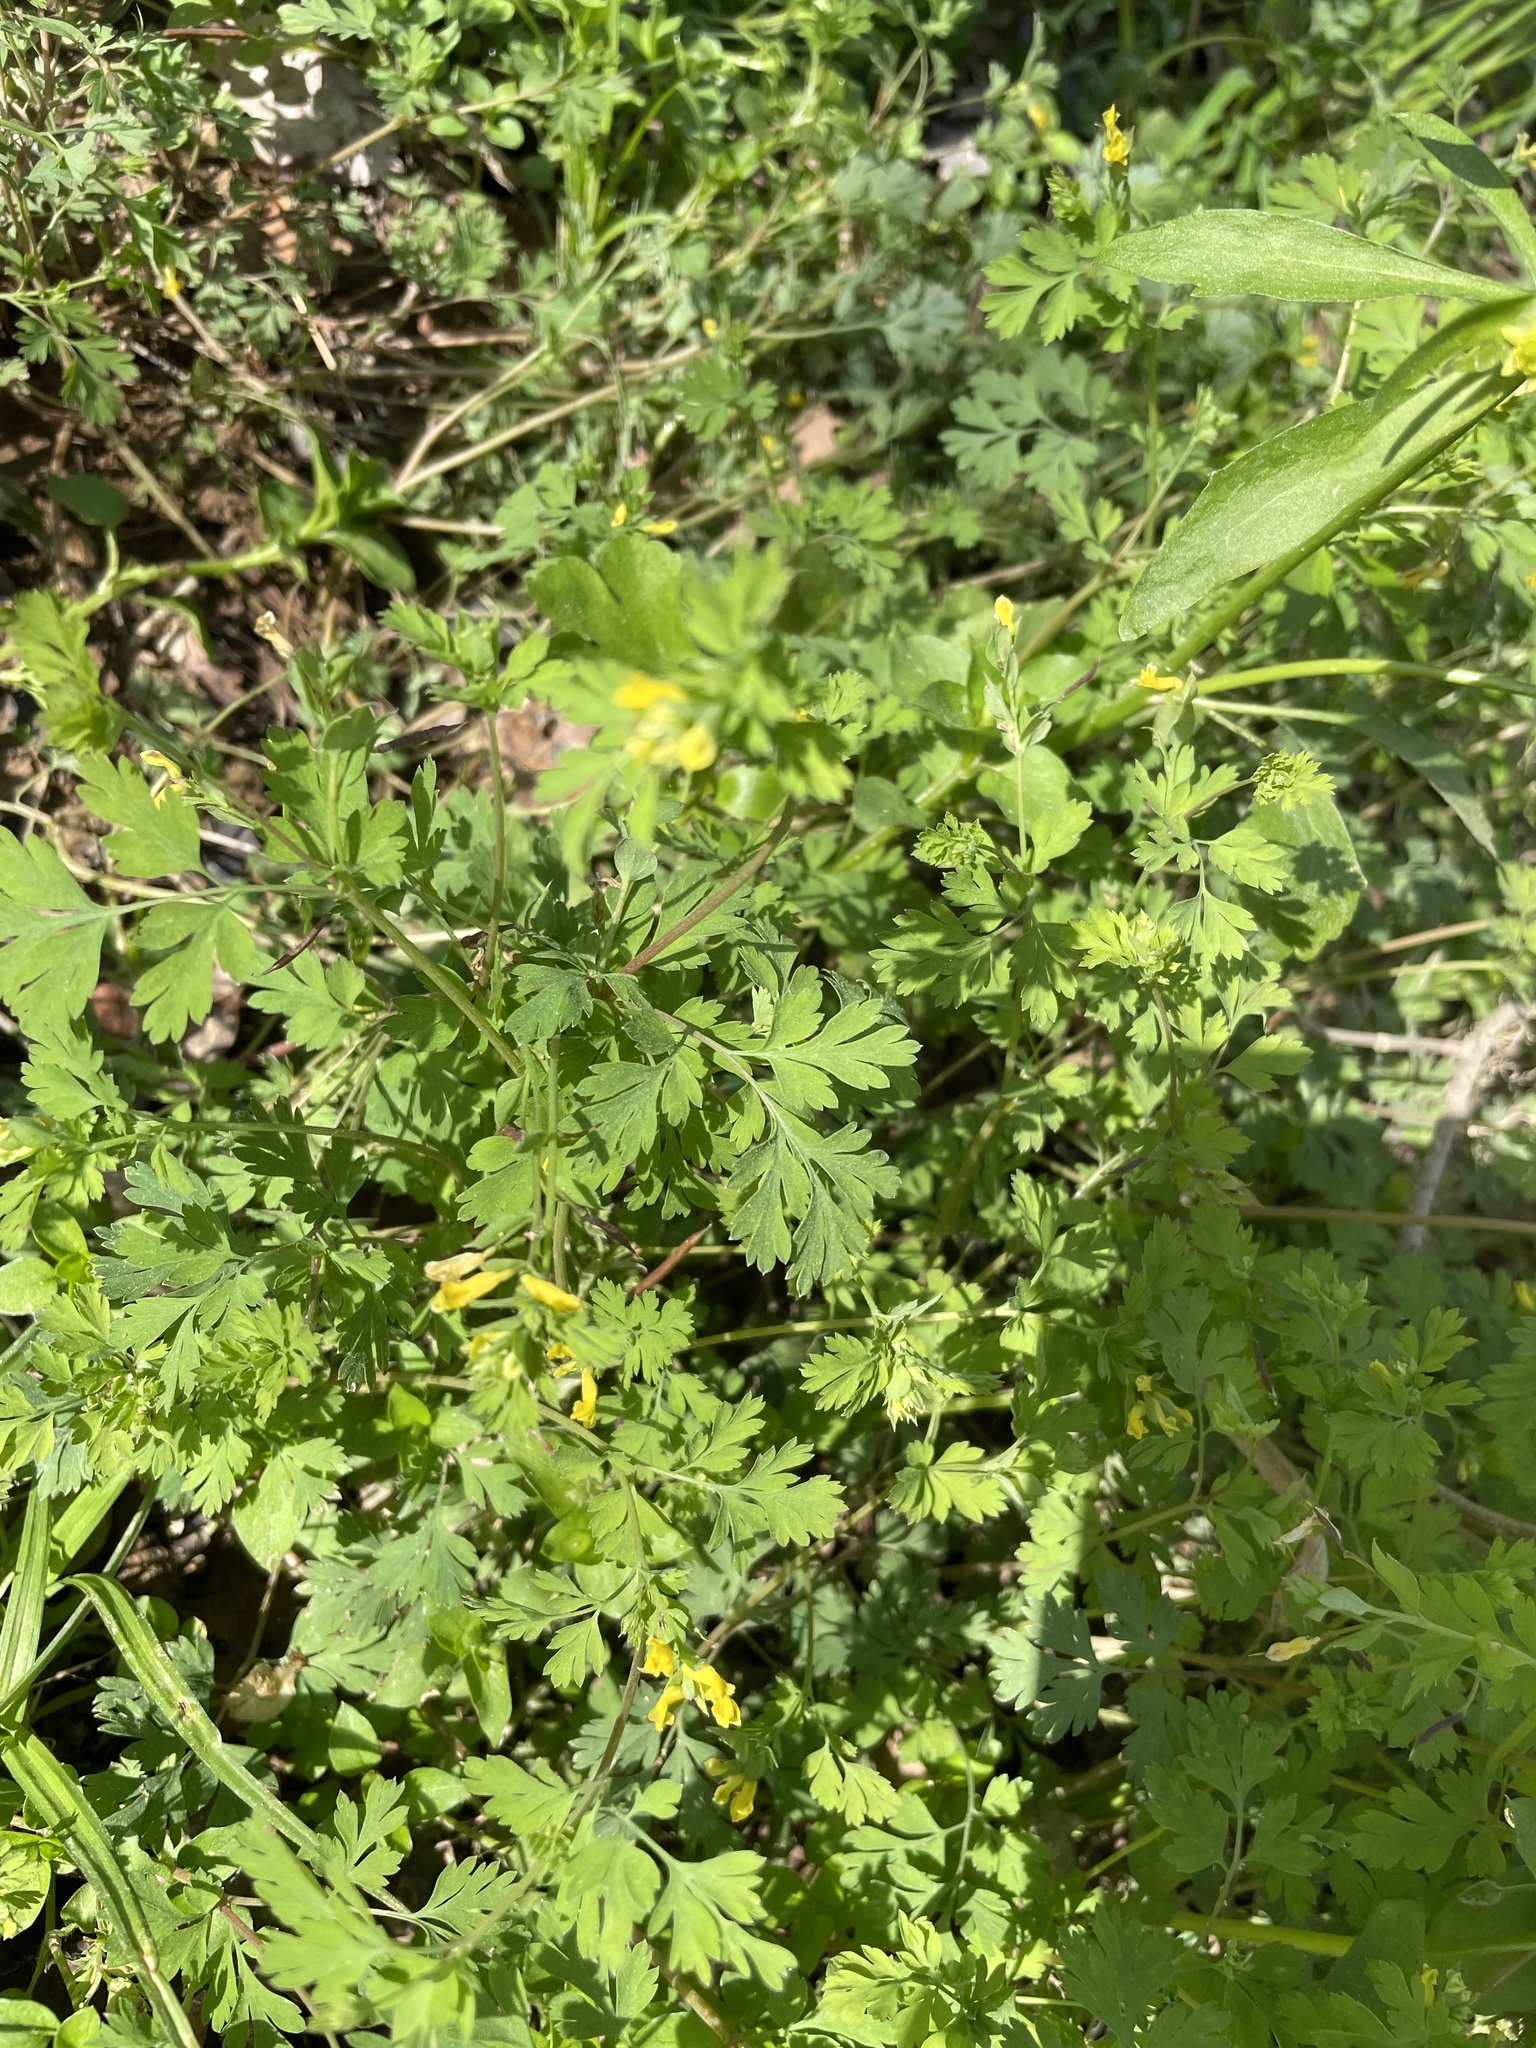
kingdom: Plantae
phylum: Tracheophyta
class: Magnoliopsida
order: Ranunculales
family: Papaveraceae
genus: Corydalis
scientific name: Corydalis flavula
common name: Yellow corydalis
